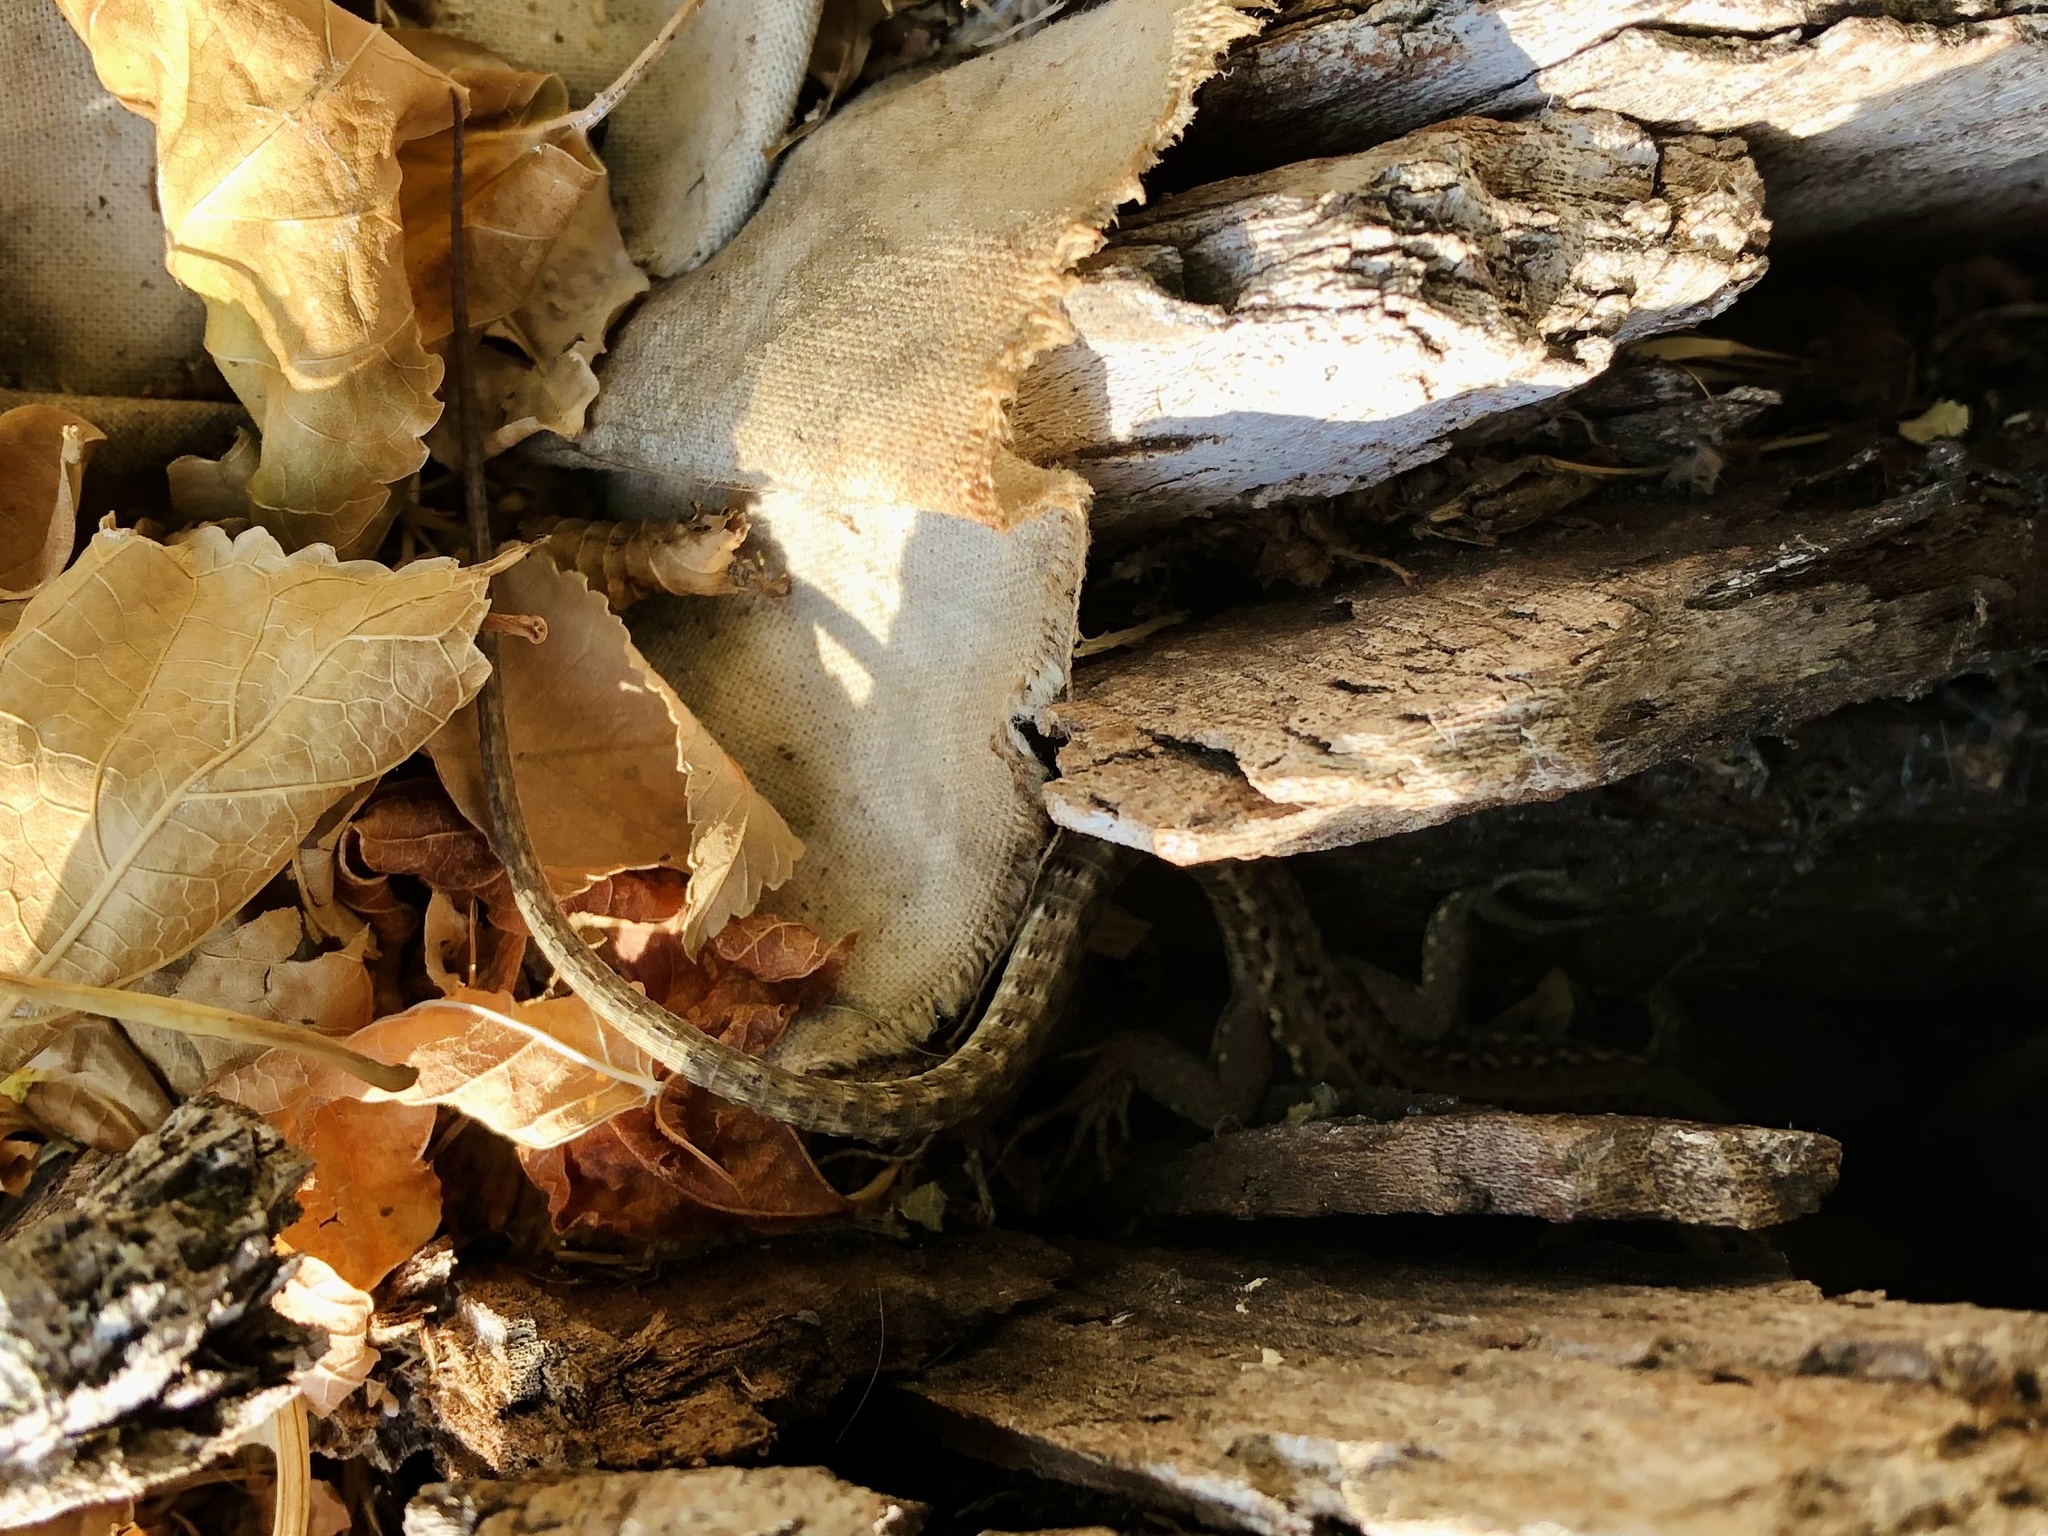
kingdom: Animalia
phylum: Chordata
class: Squamata
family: Lacertidae
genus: Podarcis
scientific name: Podarcis siculus
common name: Italian wall lizard
